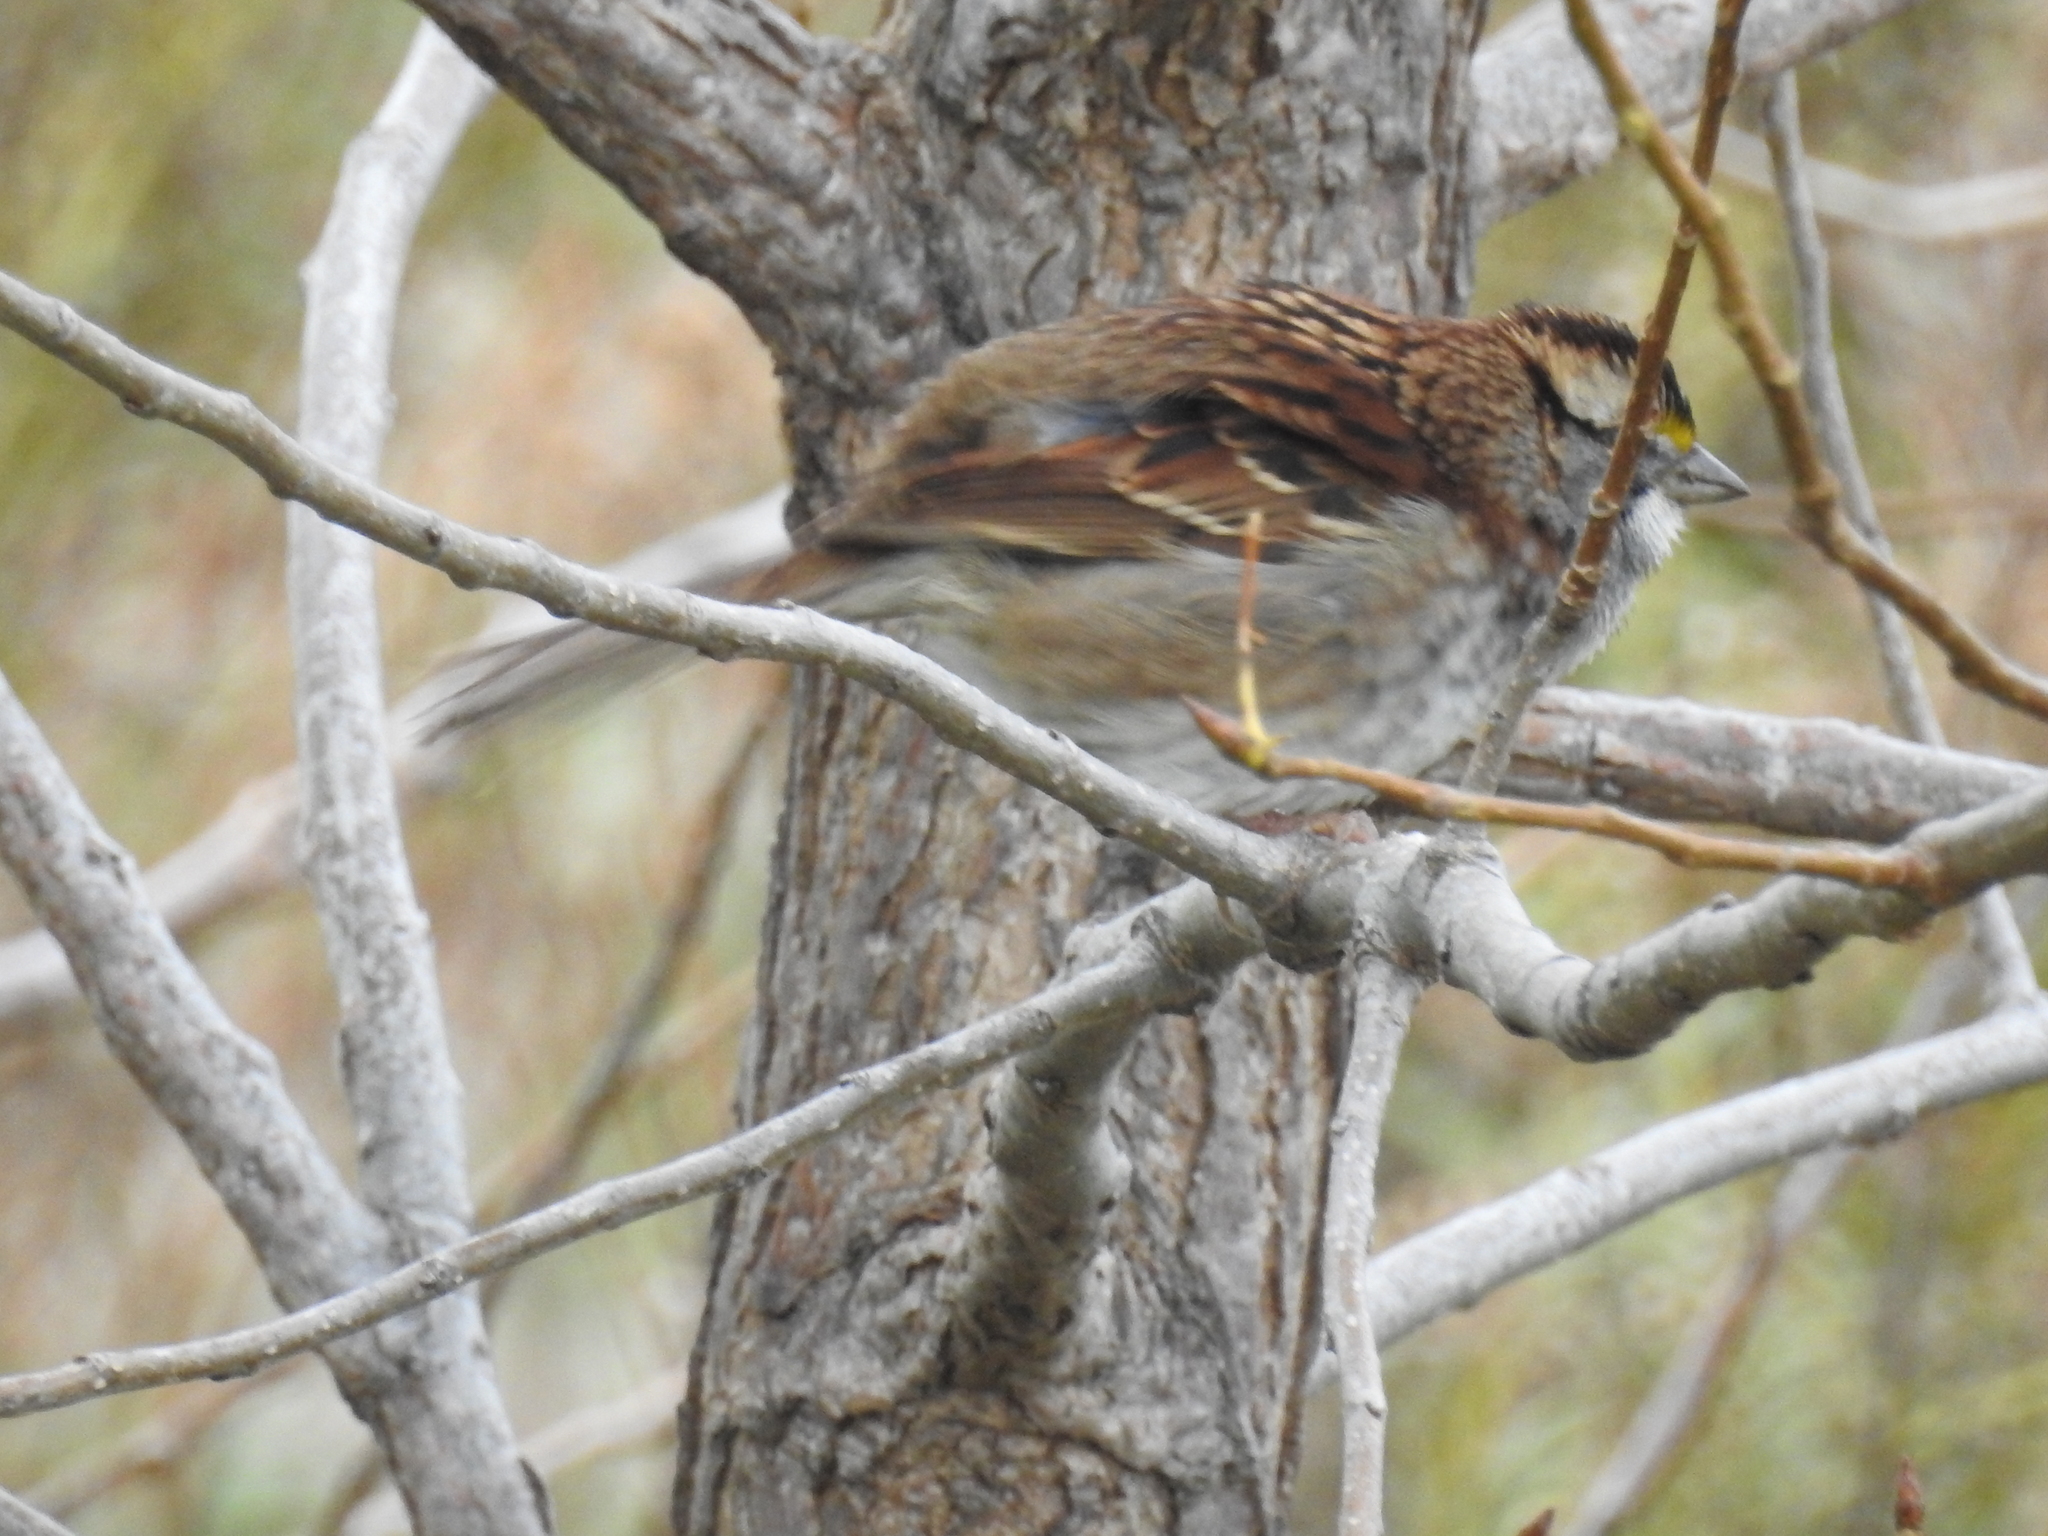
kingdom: Animalia
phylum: Chordata
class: Aves
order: Passeriformes
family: Passerellidae
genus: Zonotrichia
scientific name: Zonotrichia albicollis
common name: White-throated sparrow
